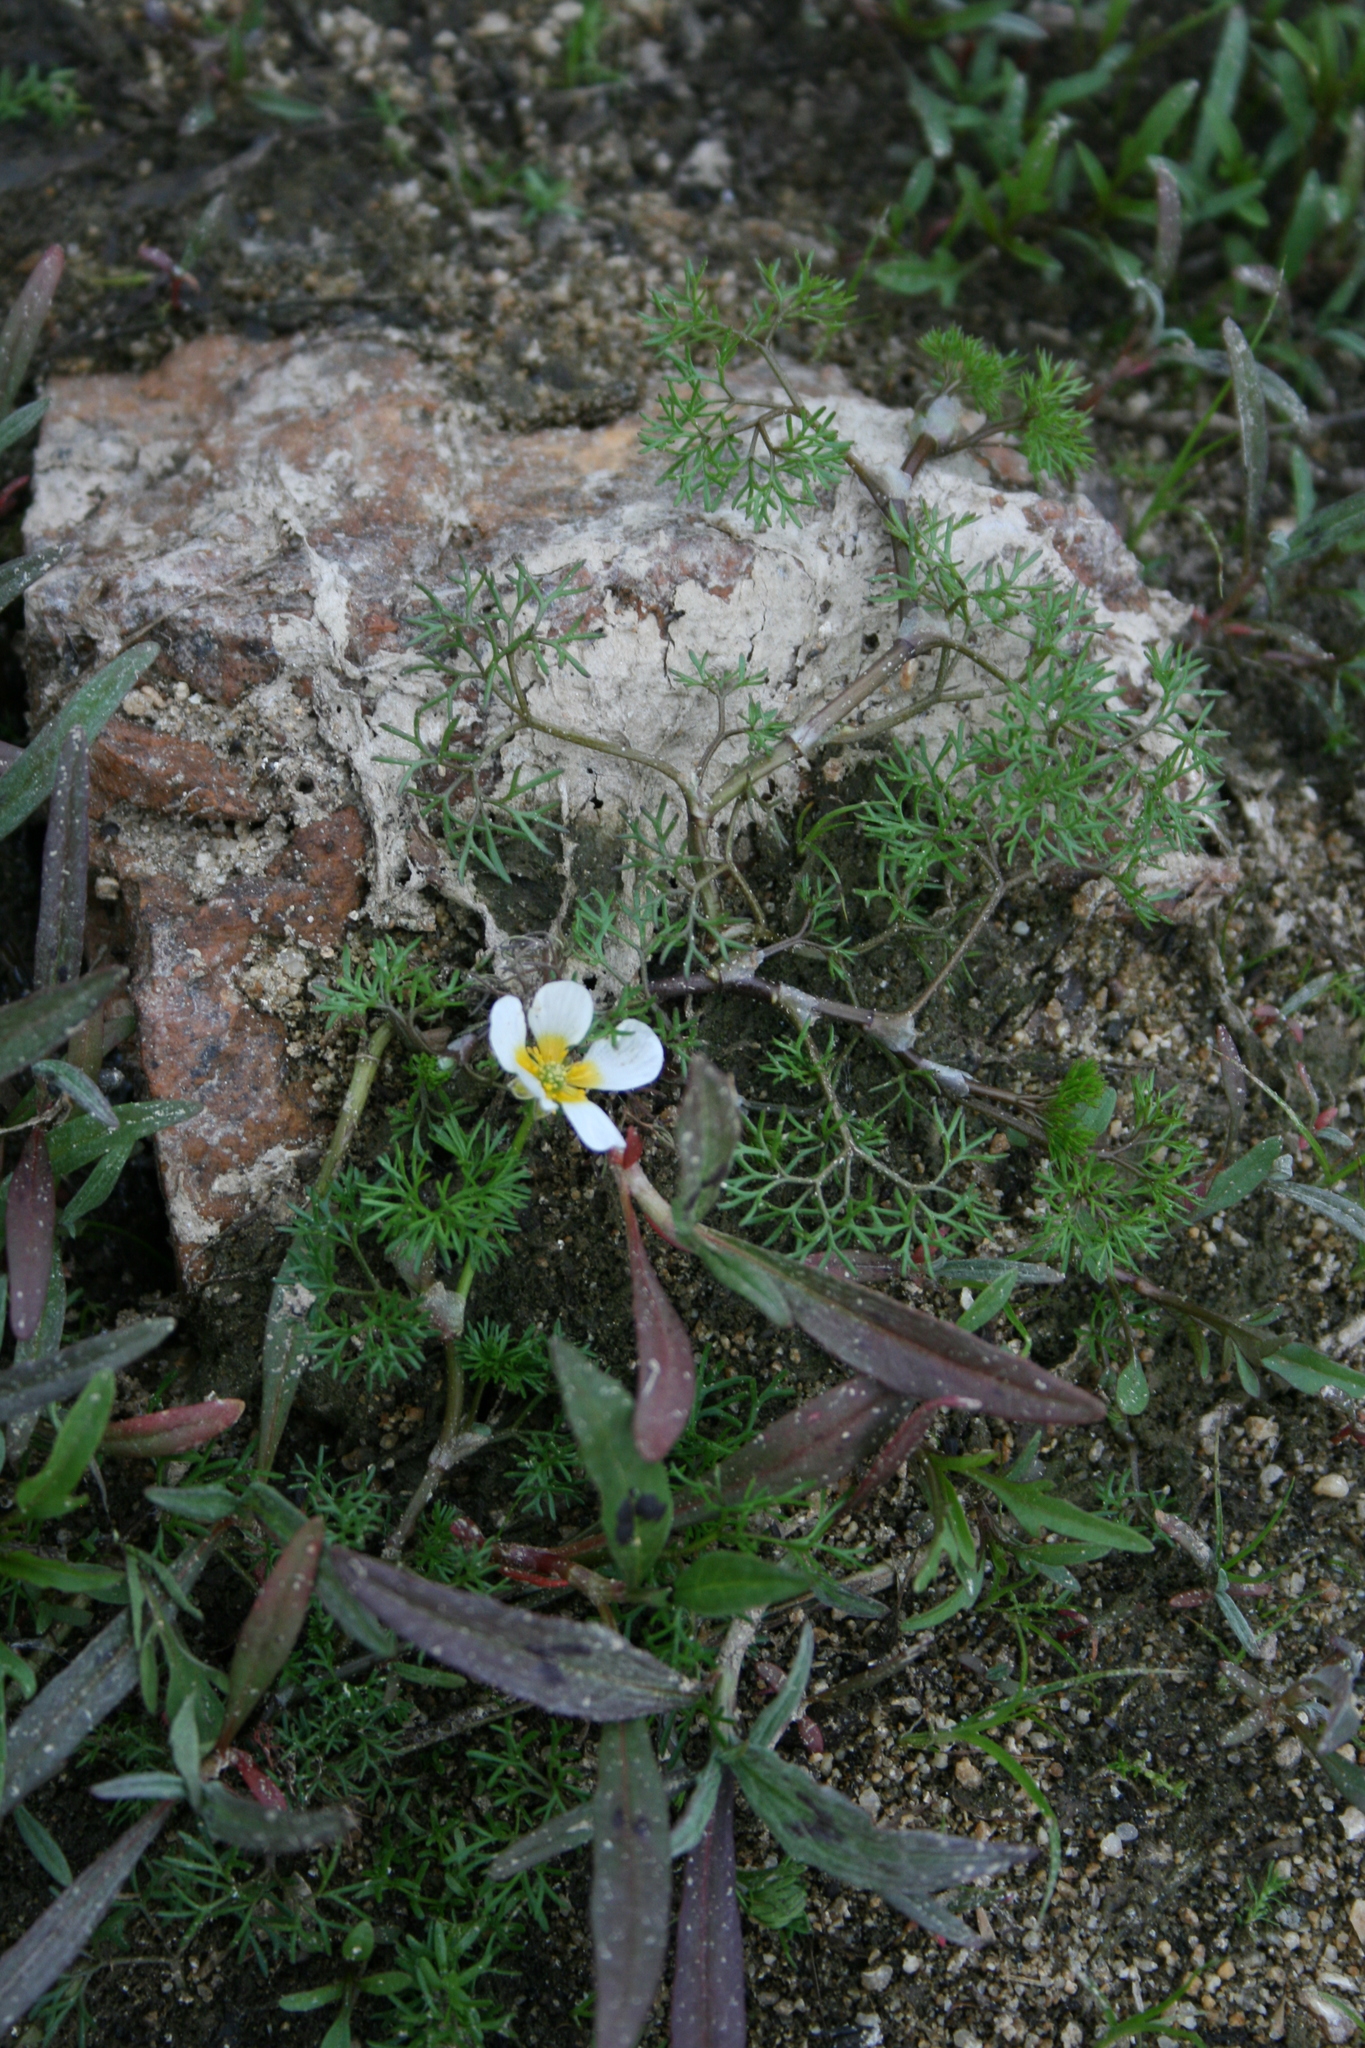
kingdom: Plantae
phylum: Tracheophyta
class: Magnoliopsida
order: Ranunculales
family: Ranunculaceae
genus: Ranunculus
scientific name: Ranunculus aquatilis
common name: Common water-crowfoot
